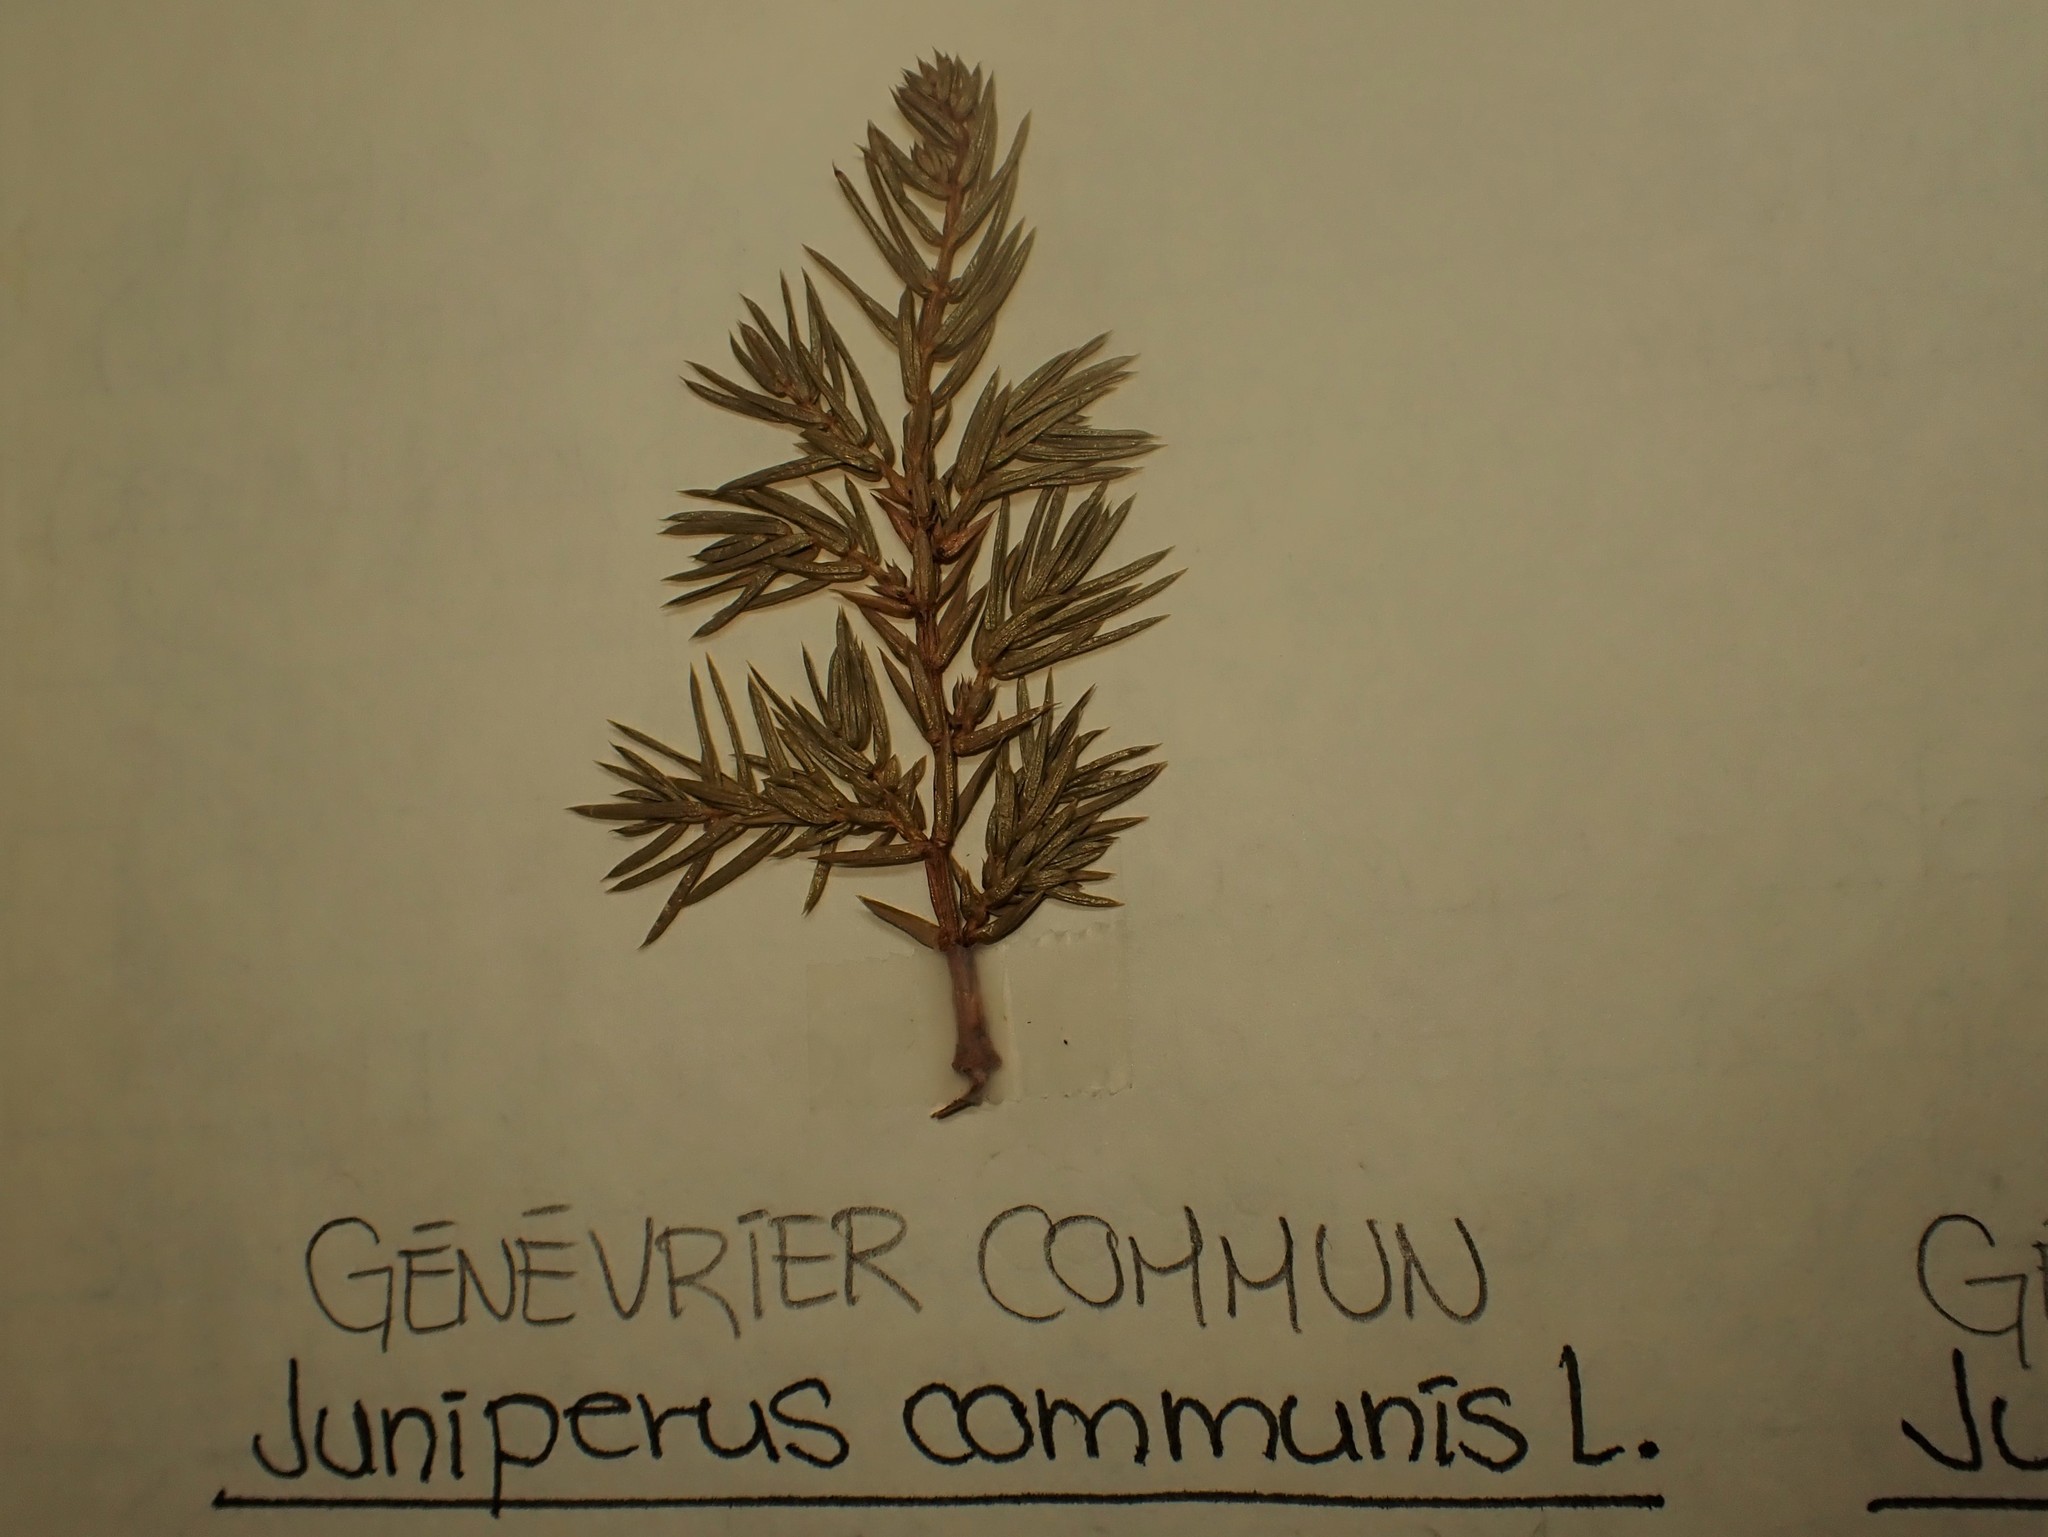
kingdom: Plantae
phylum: Tracheophyta
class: Pinopsida
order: Pinales
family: Cupressaceae
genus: Juniperus
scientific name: Juniperus communis
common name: Common juniper
